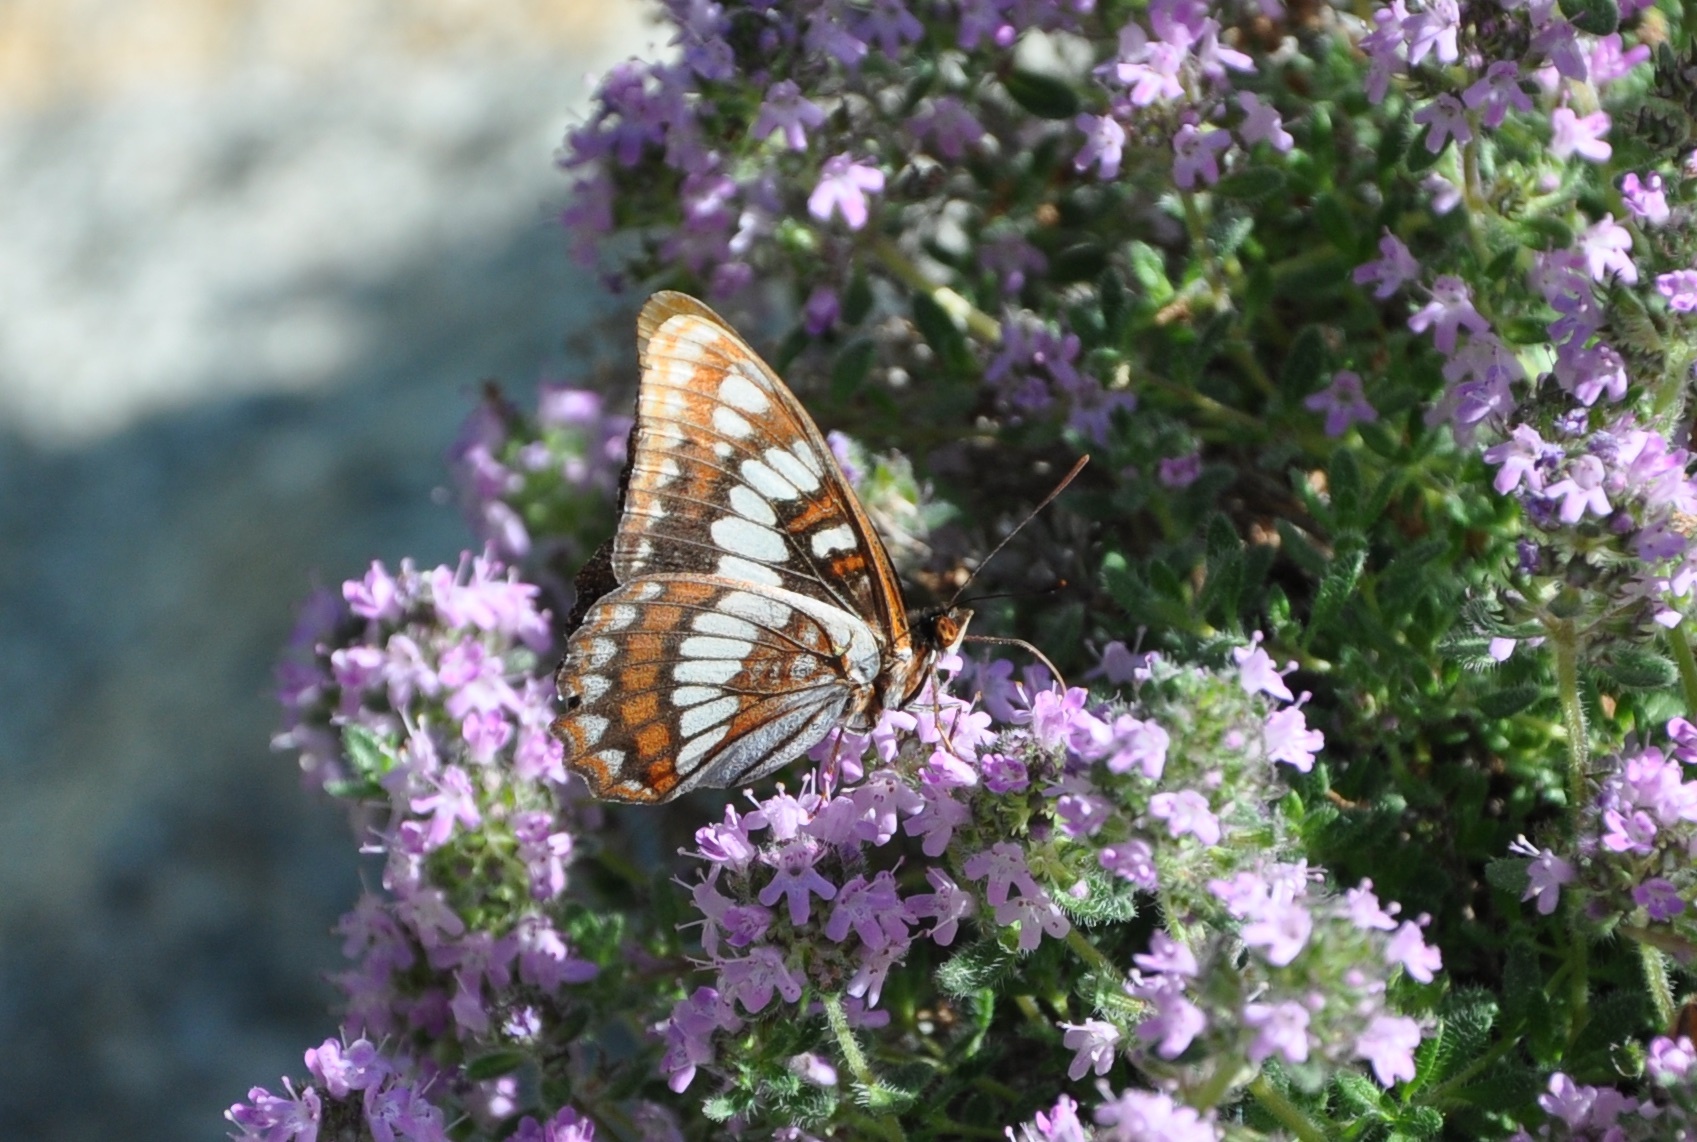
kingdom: Animalia
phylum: Arthropoda
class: Insecta
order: Lepidoptera
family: Nymphalidae
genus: Limenitis
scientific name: Limenitis lorquini
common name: Lorquin's admiral
